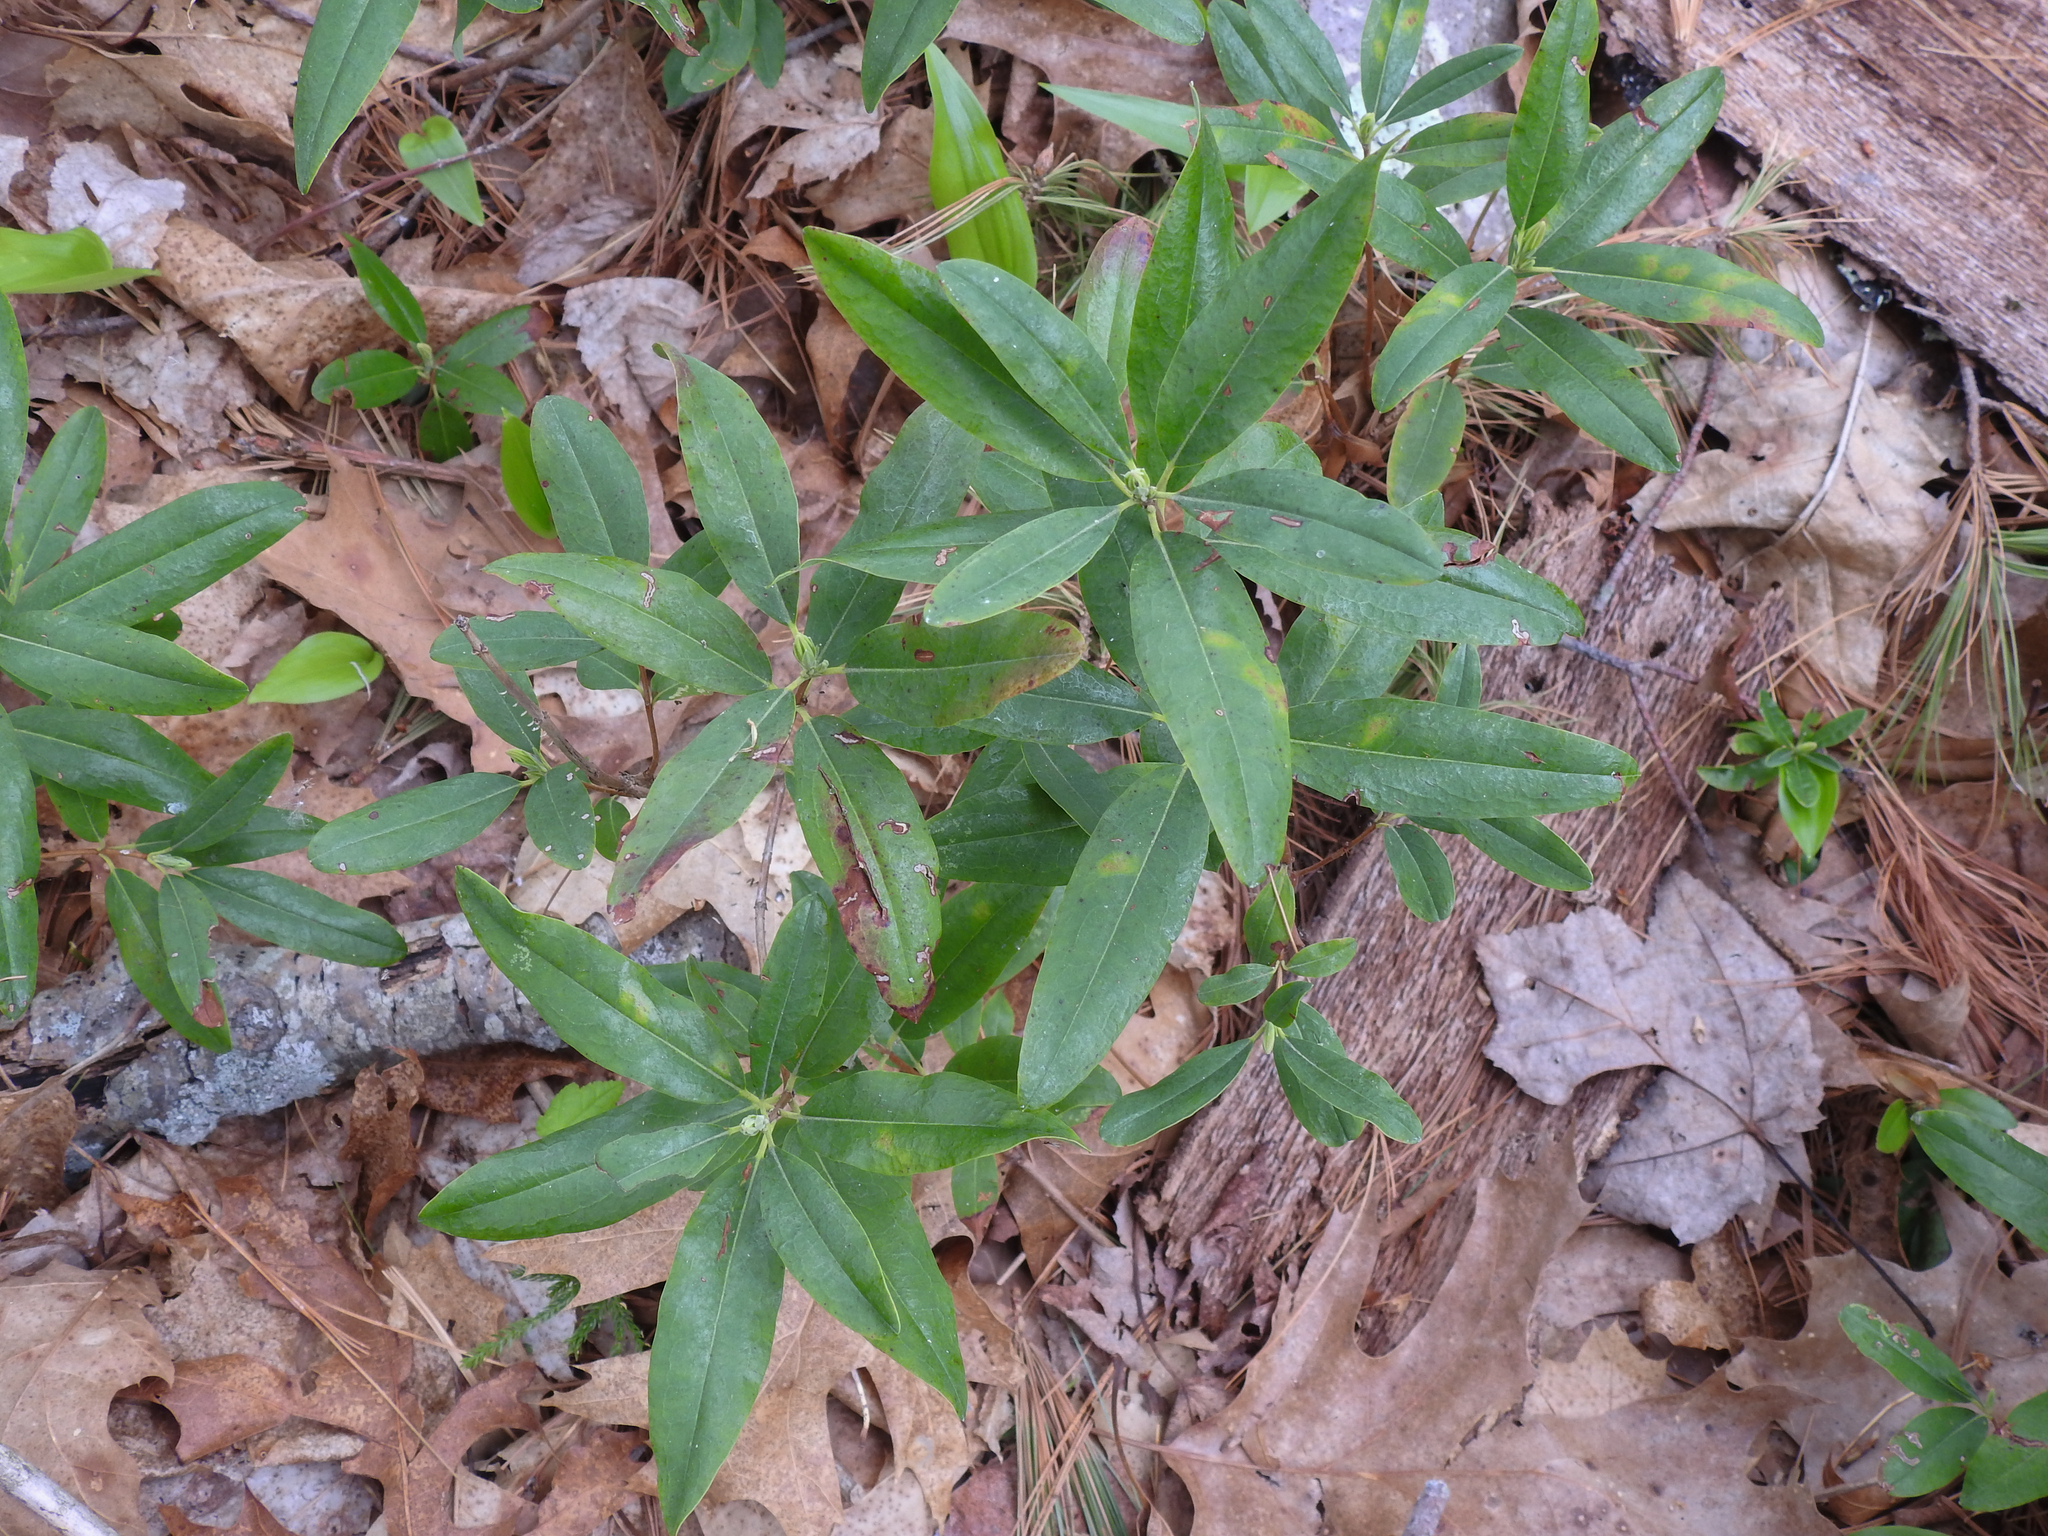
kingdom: Plantae
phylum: Tracheophyta
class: Magnoliopsida
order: Ericales
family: Ericaceae
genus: Kalmia
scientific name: Kalmia angustifolia
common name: Sheep-laurel
